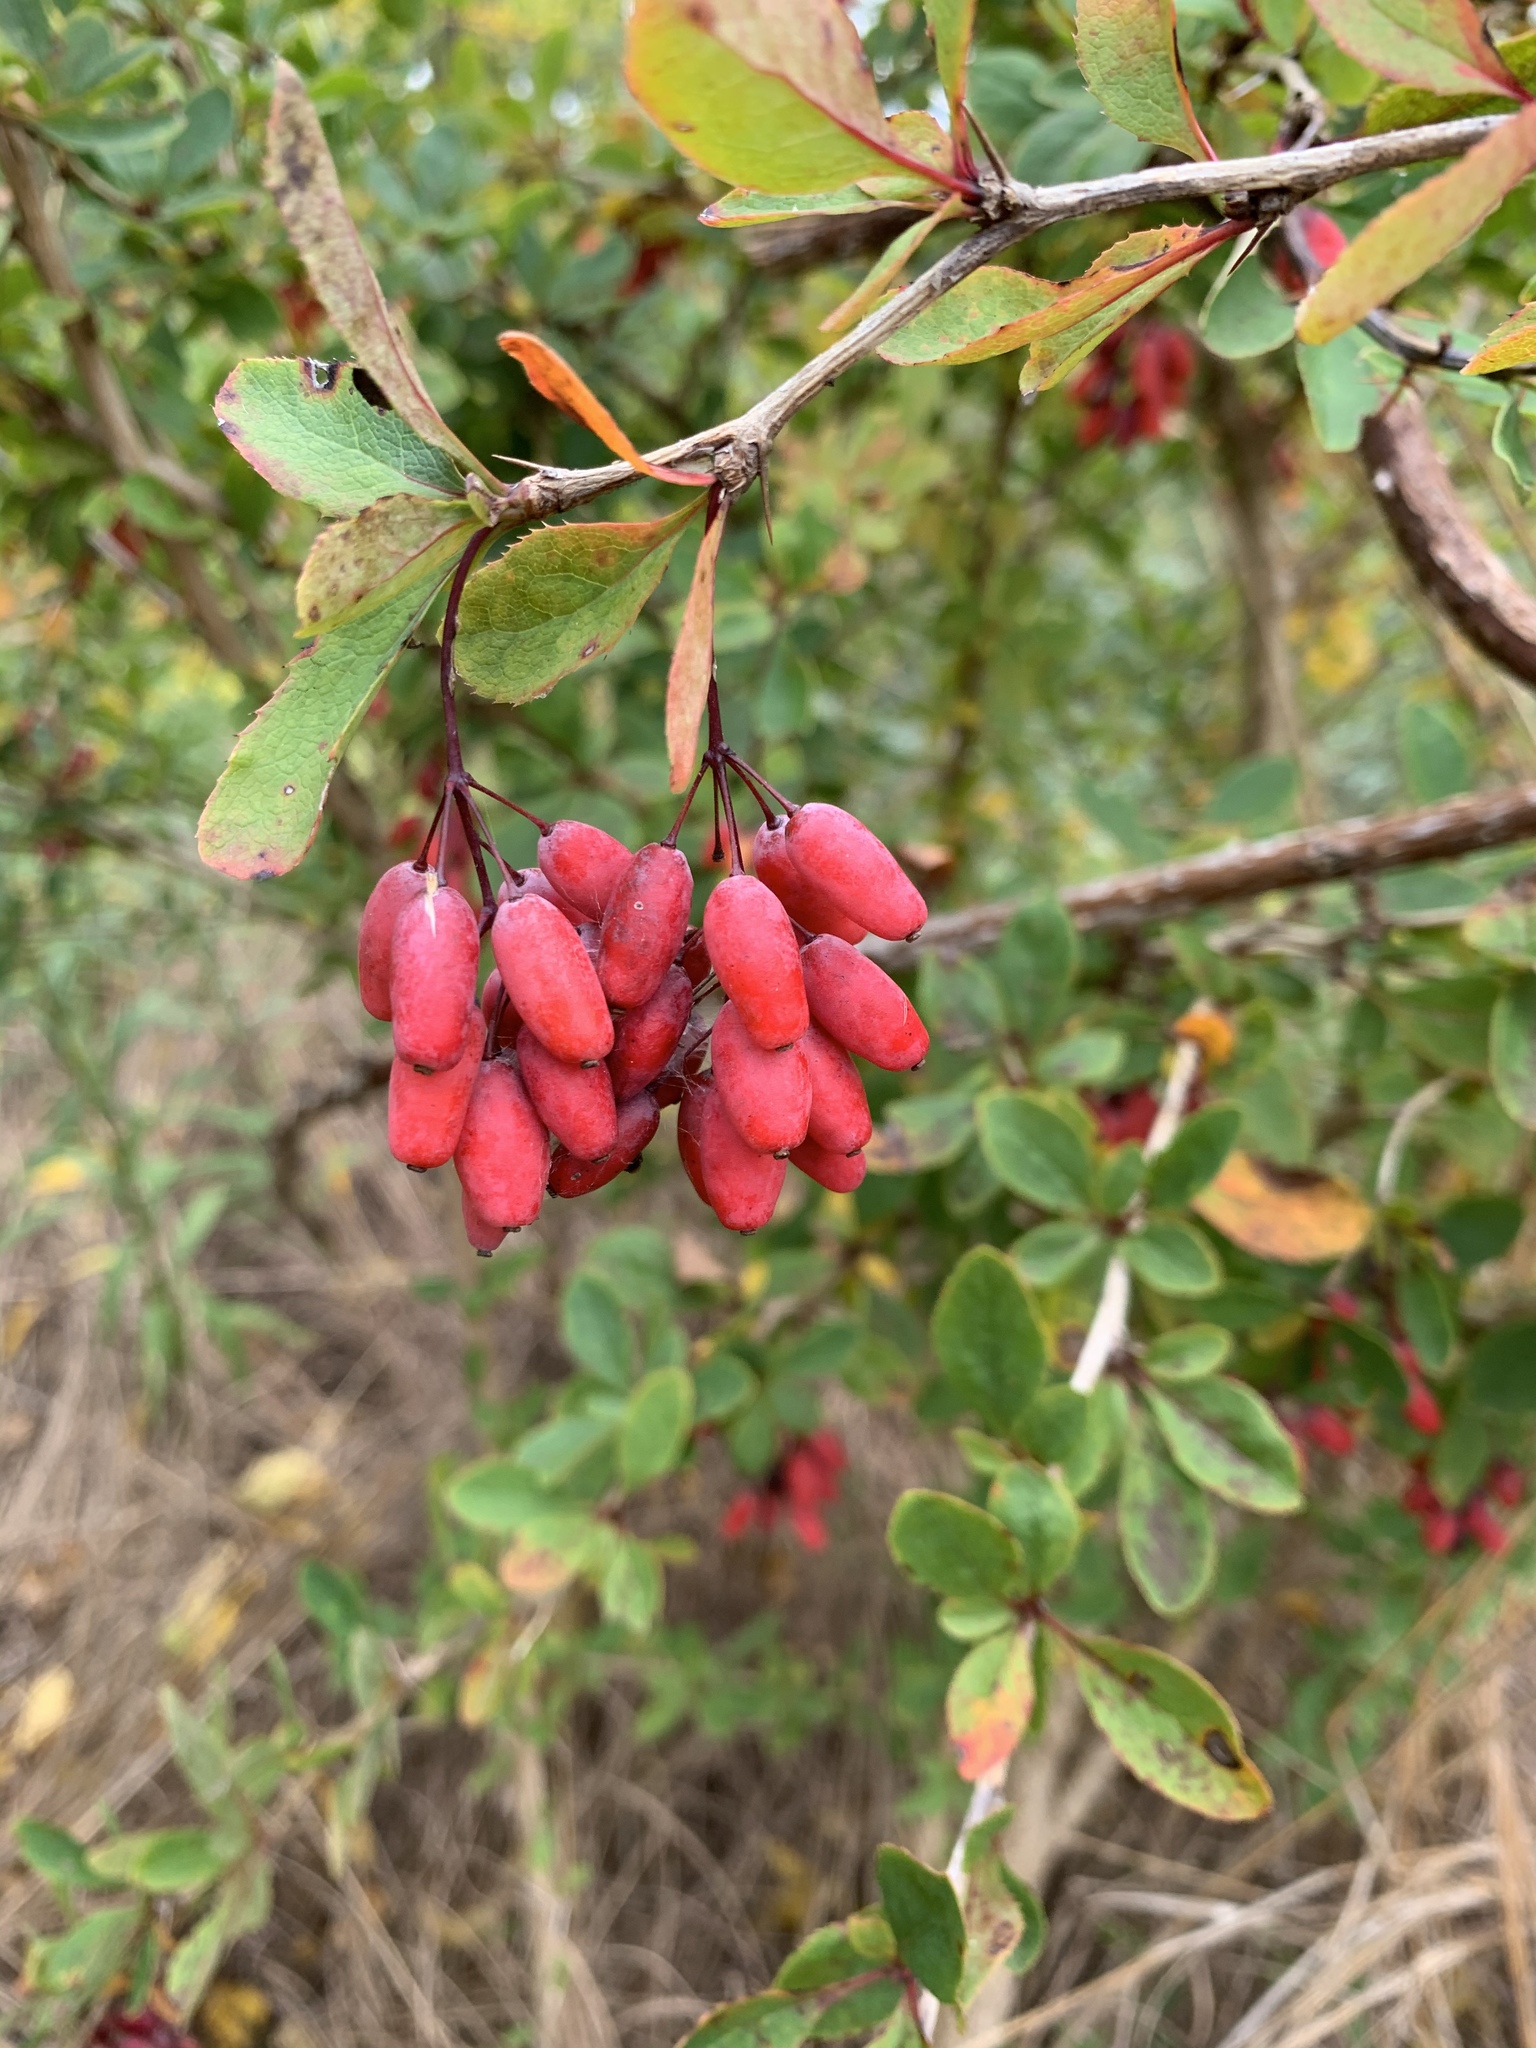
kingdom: Plantae
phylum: Tracheophyta
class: Magnoliopsida
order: Ranunculales
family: Berberidaceae
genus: Berberis
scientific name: Berberis vulgaris
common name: Barberry
